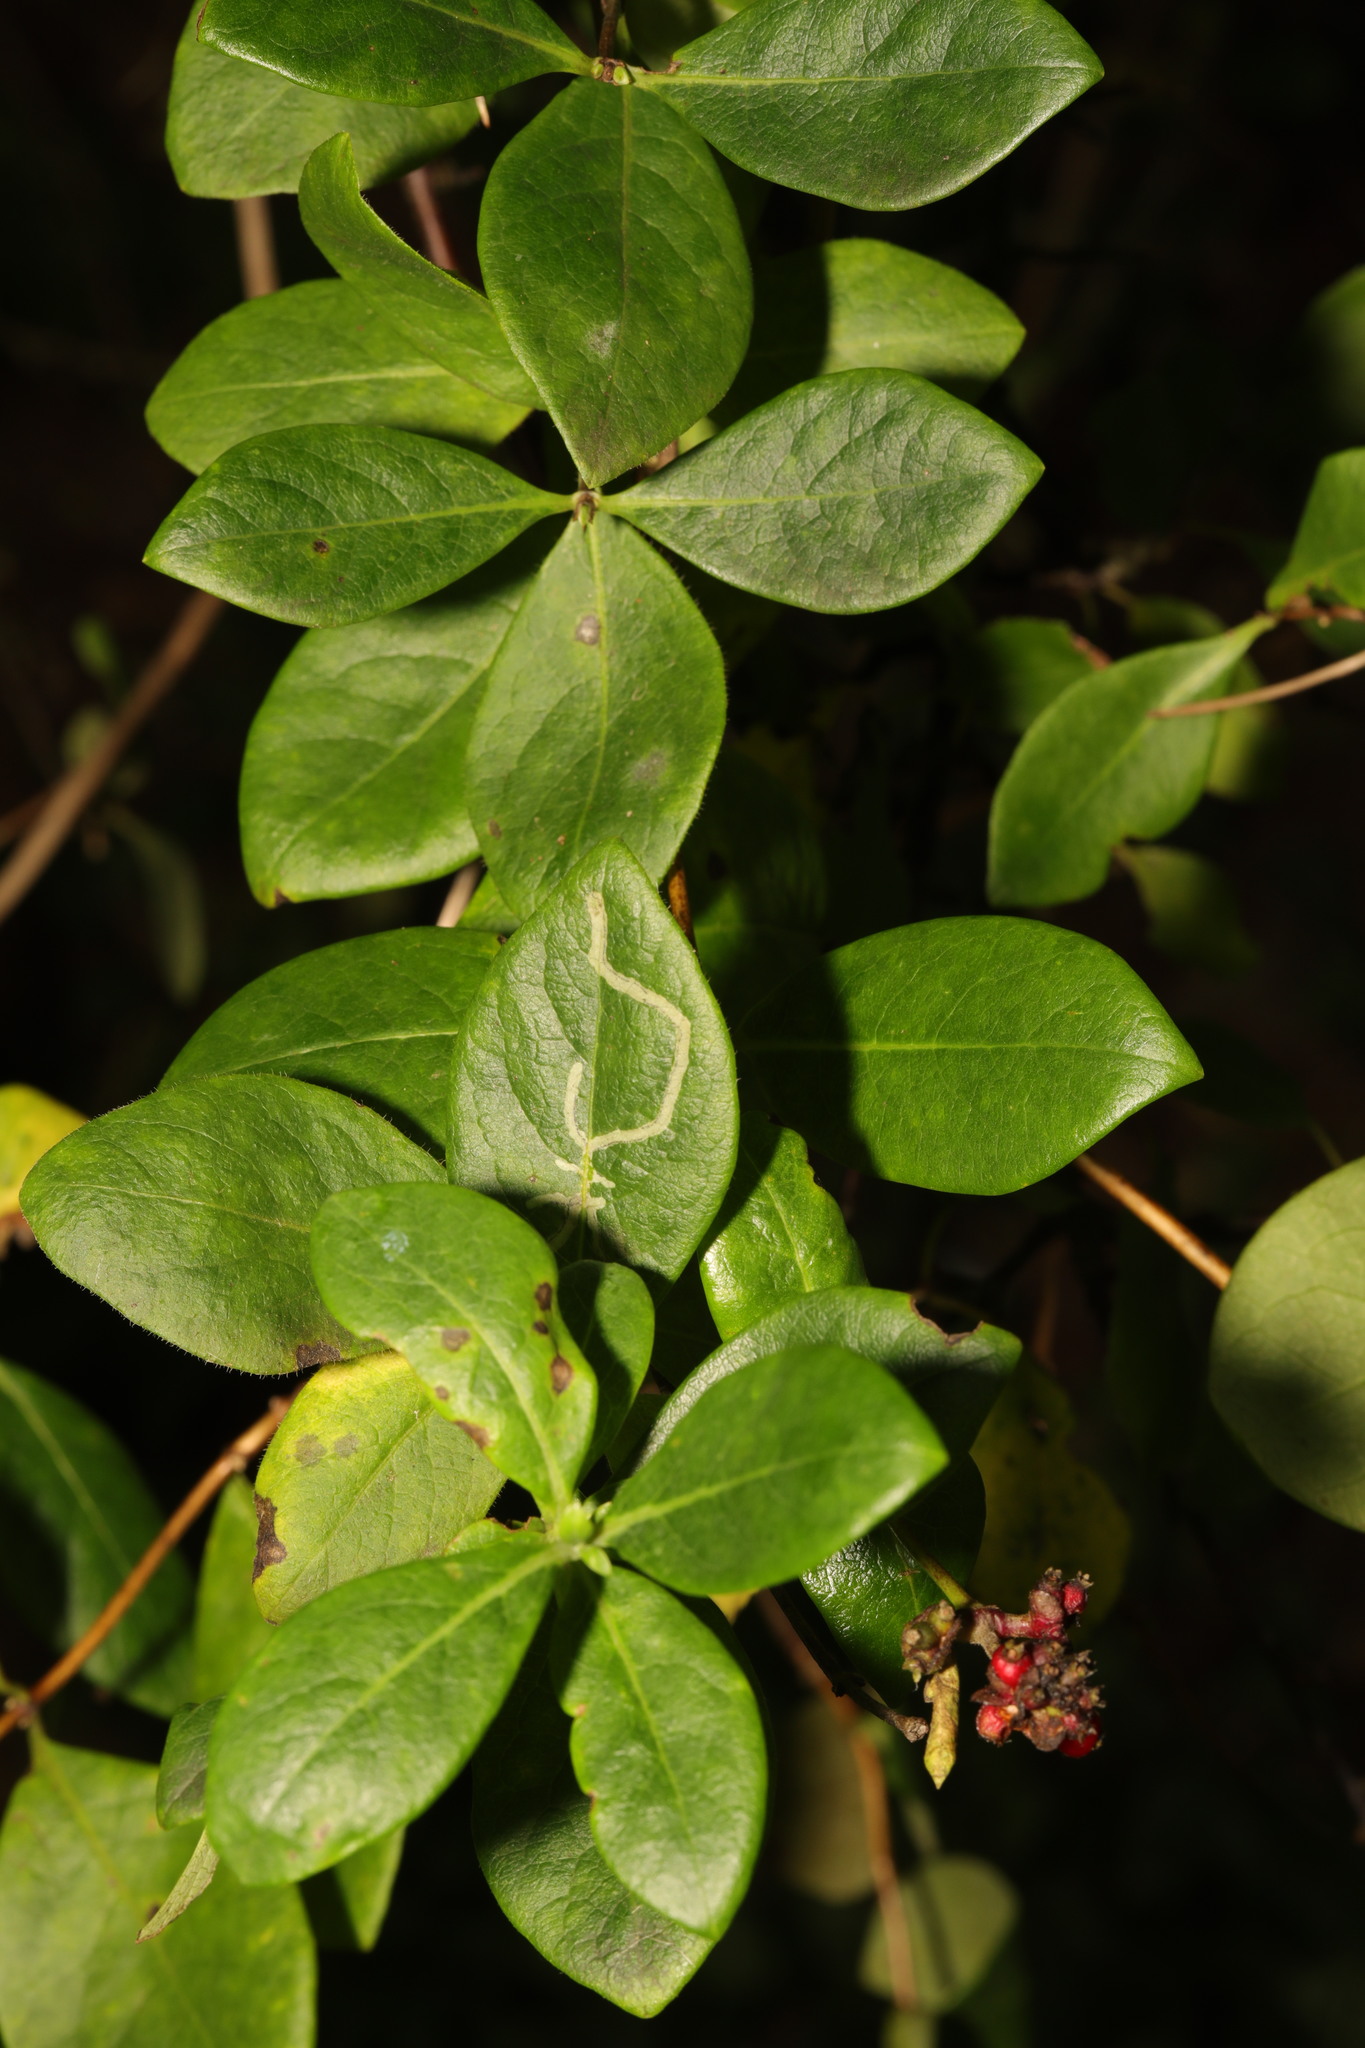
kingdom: Plantae
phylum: Tracheophyta
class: Magnoliopsida
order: Dipsacales
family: Caprifoliaceae
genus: Lonicera
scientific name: Lonicera periclymenum
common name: European honeysuckle
